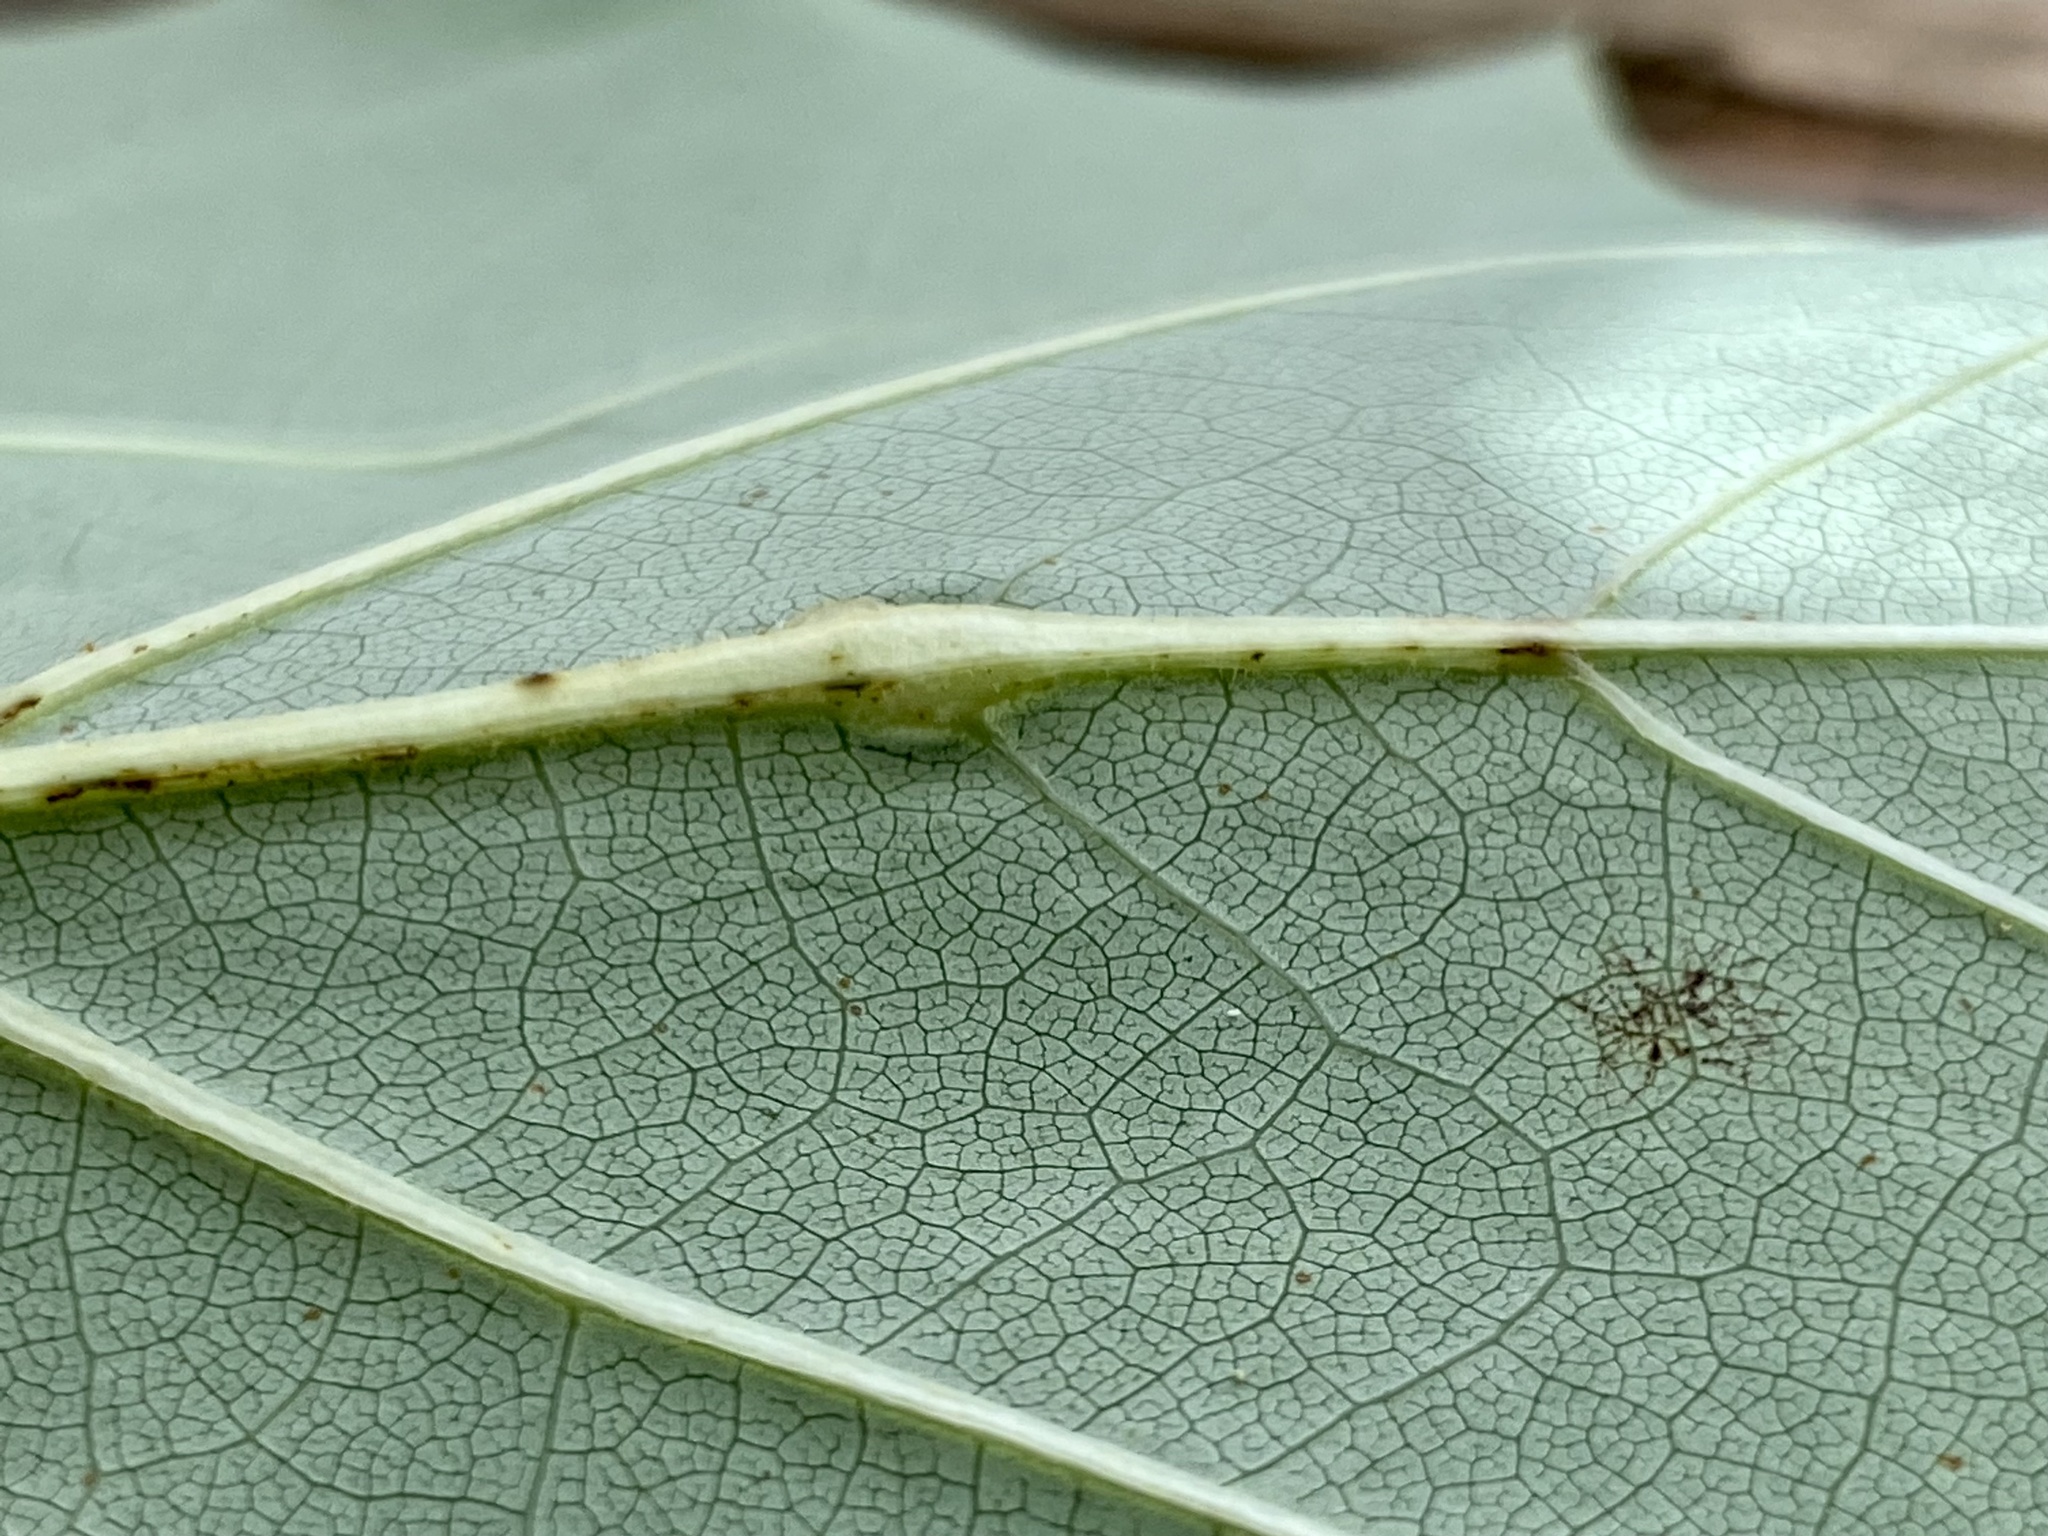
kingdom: Animalia
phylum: Arthropoda
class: Insecta
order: Diptera
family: Cecidomyiidae
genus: Resseliella
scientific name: Resseliella tulipiferae
